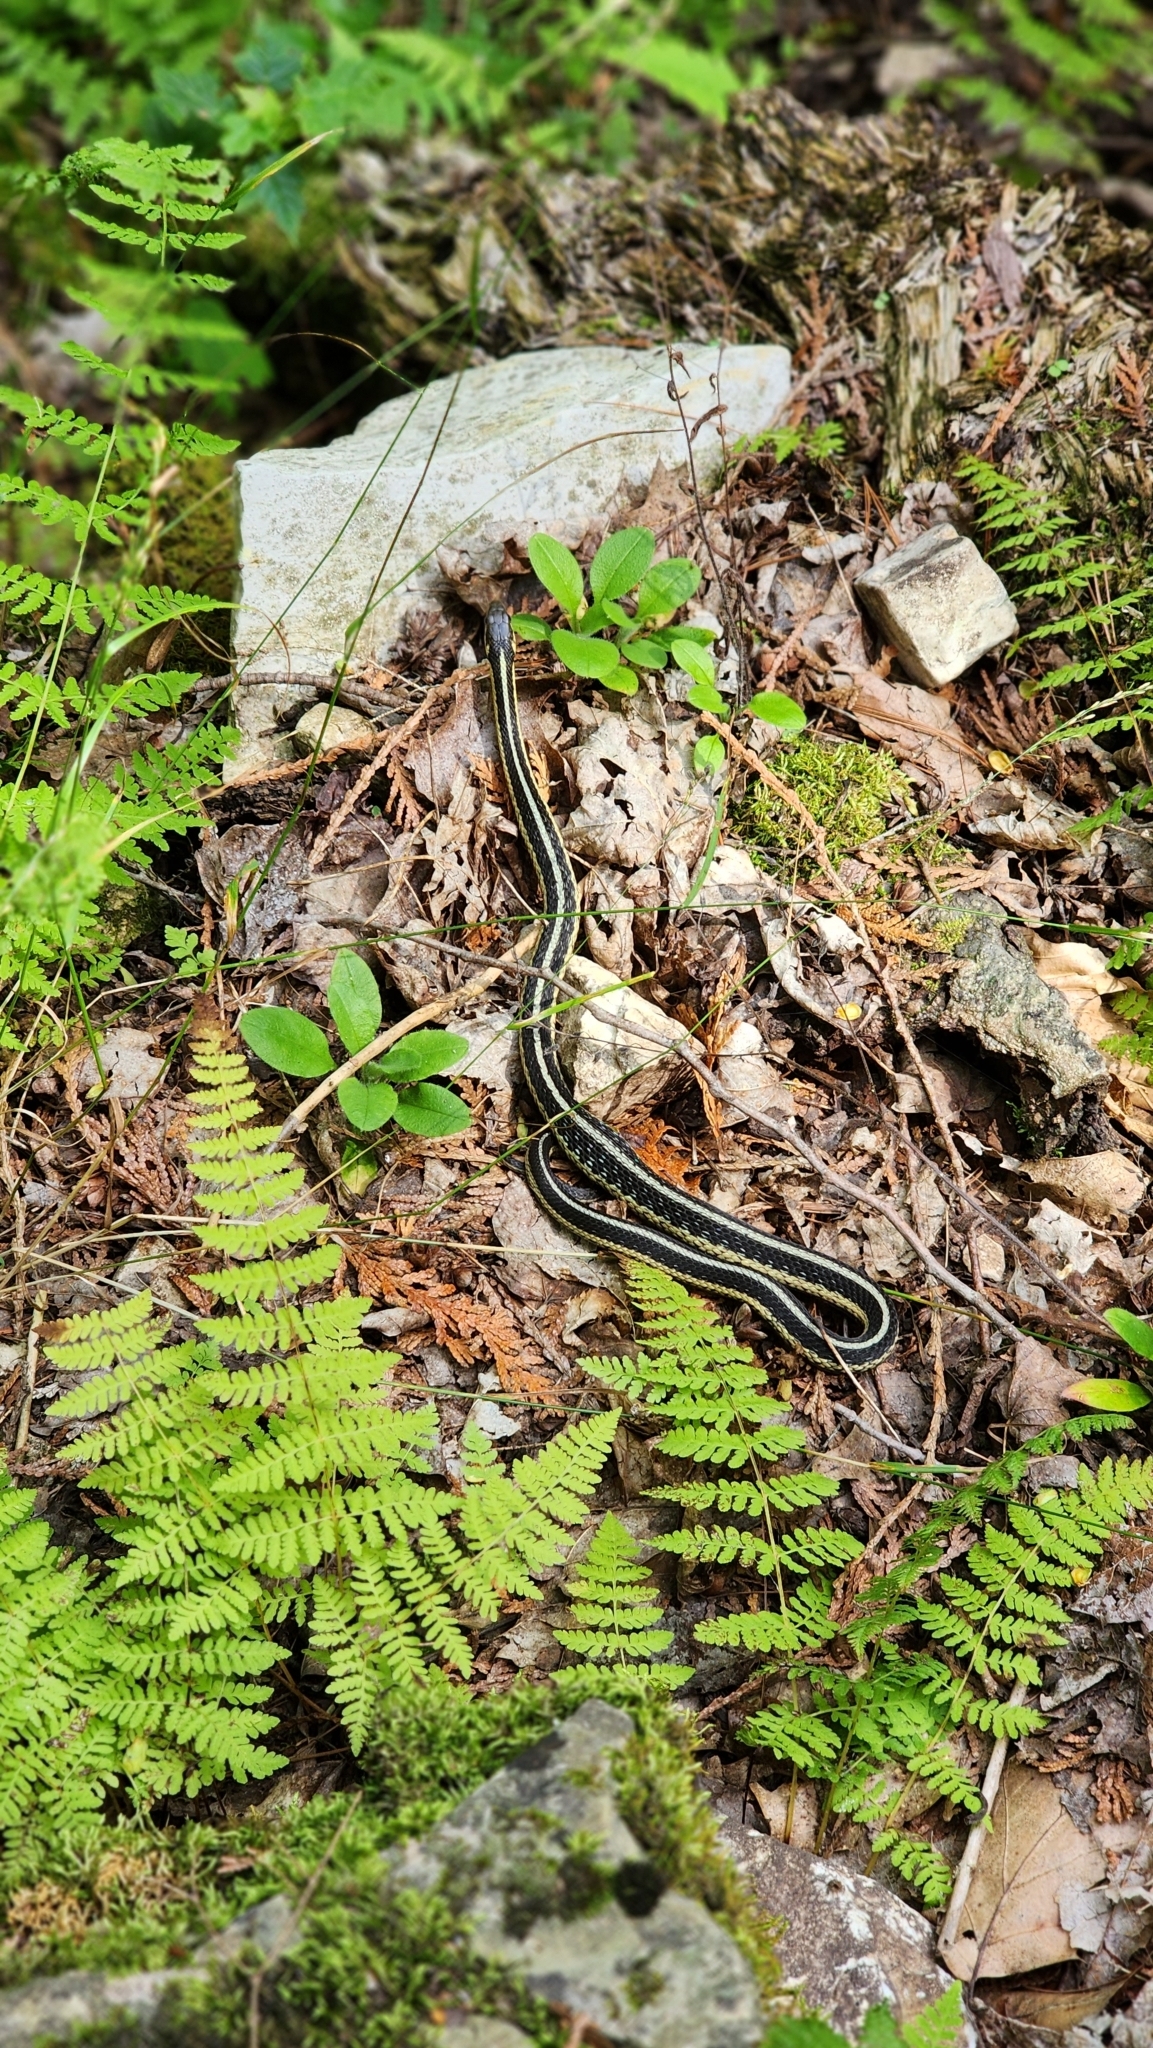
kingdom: Animalia
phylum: Chordata
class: Squamata
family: Colubridae
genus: Thamnophis
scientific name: Thamnophis sirtalis
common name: Common garter snake
